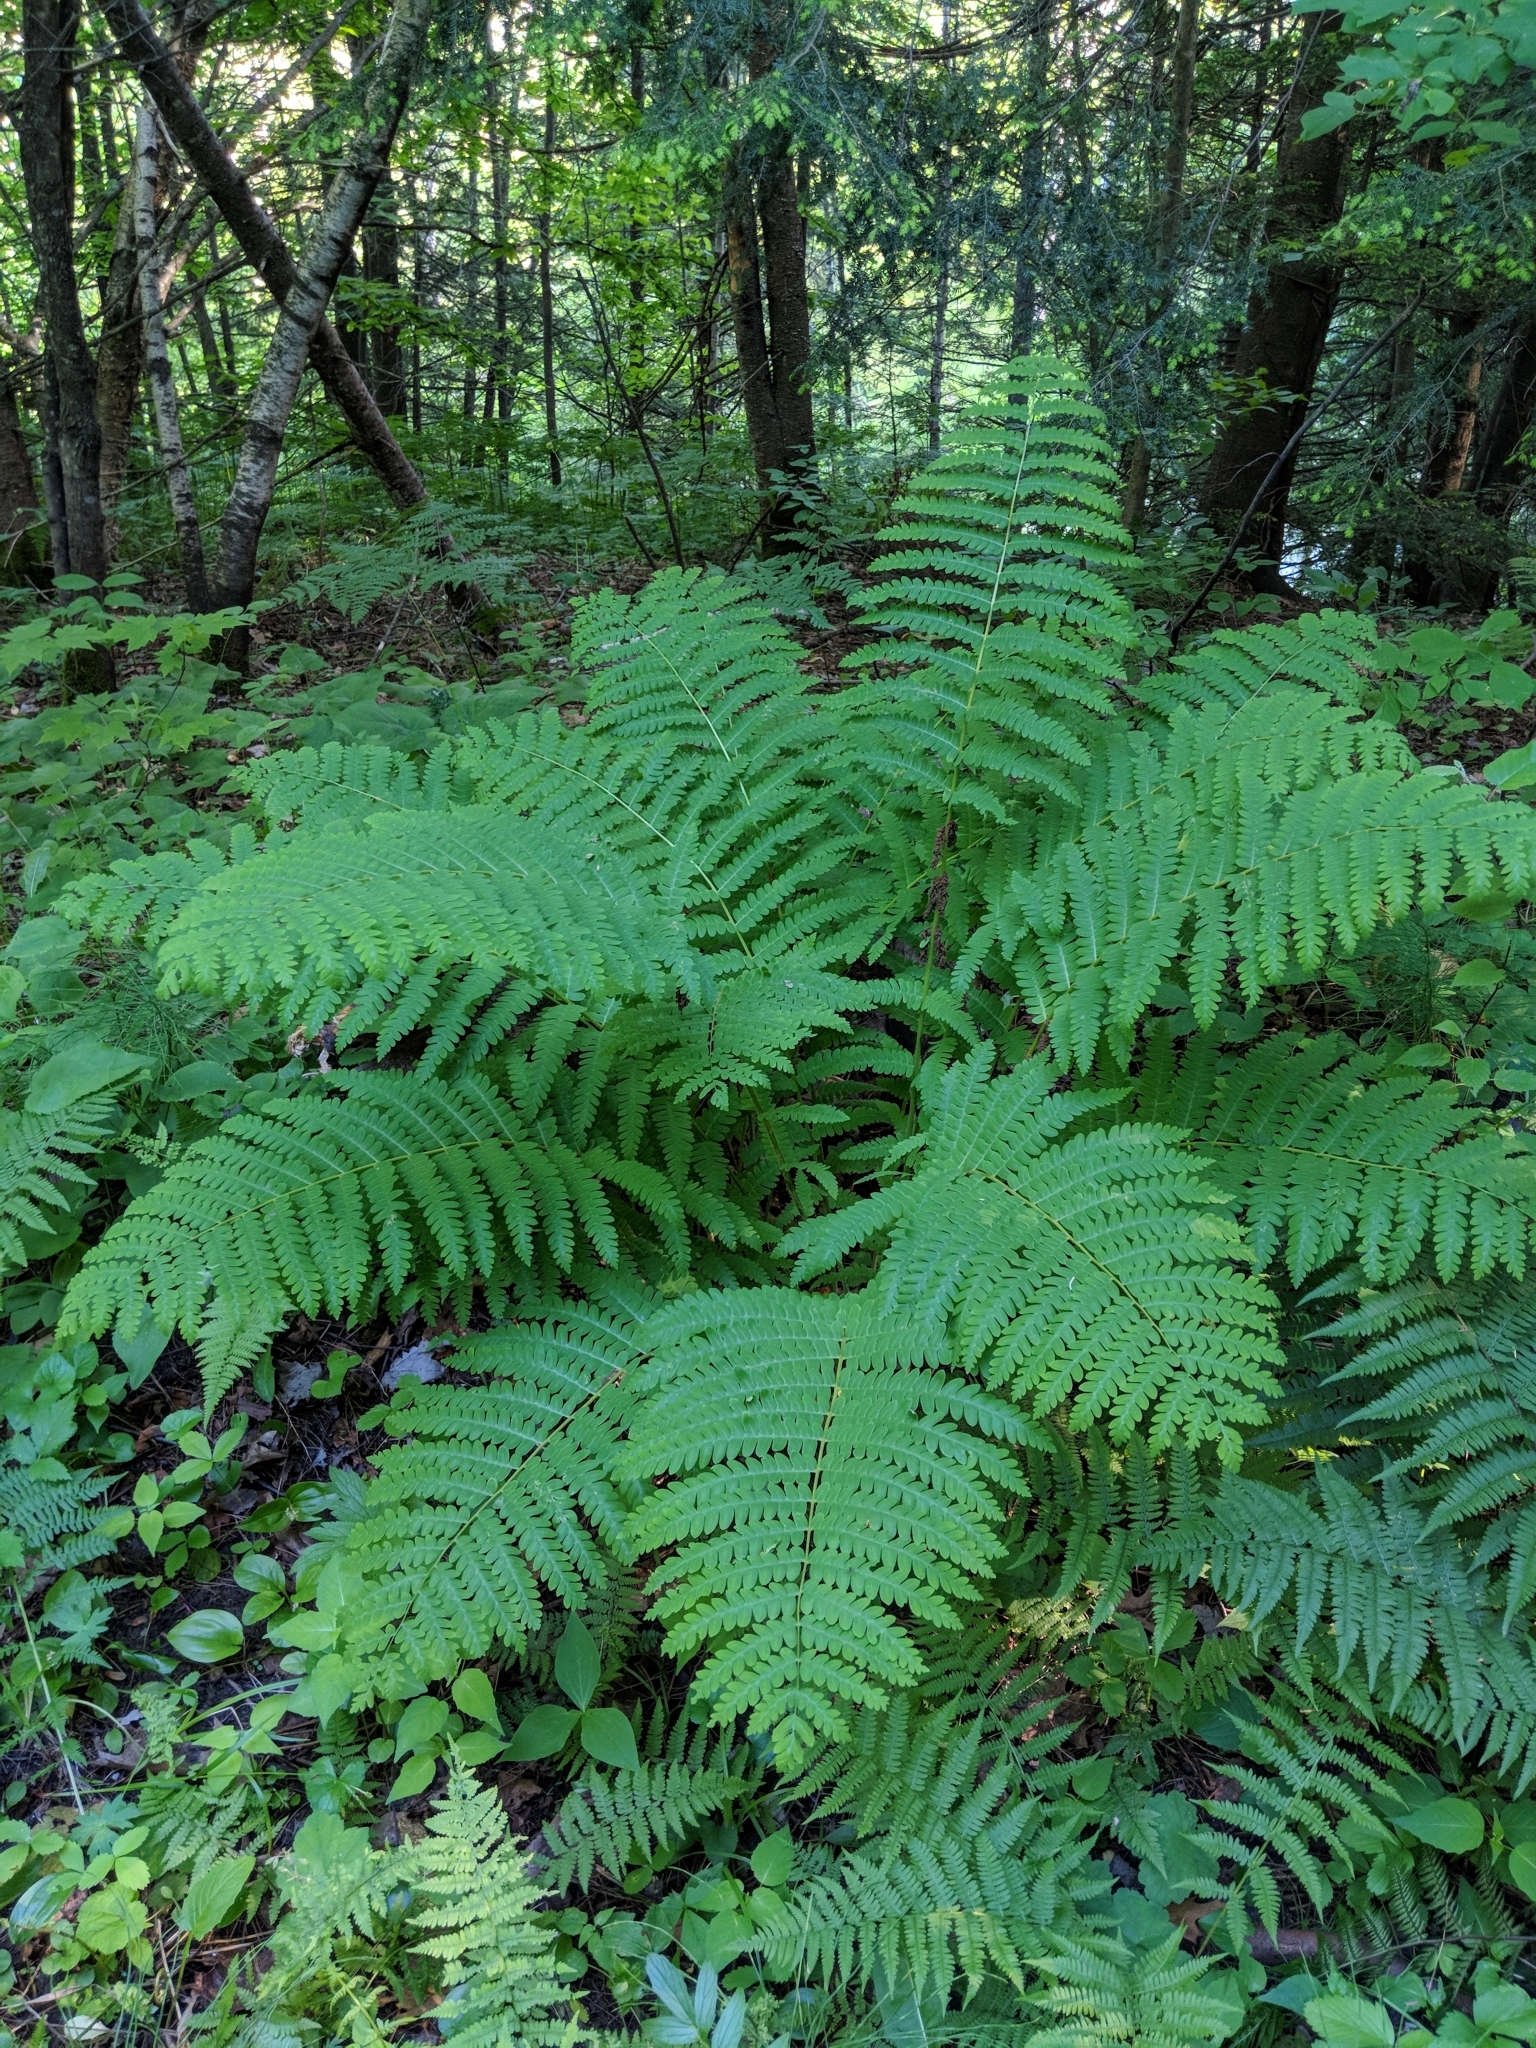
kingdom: Plantae
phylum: Tracheophyta
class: Polypodiopsida
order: Osmundales
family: Osmundaceae
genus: Claytosmunda
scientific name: Claytosmunda claytoniana
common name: Clayton's fern
